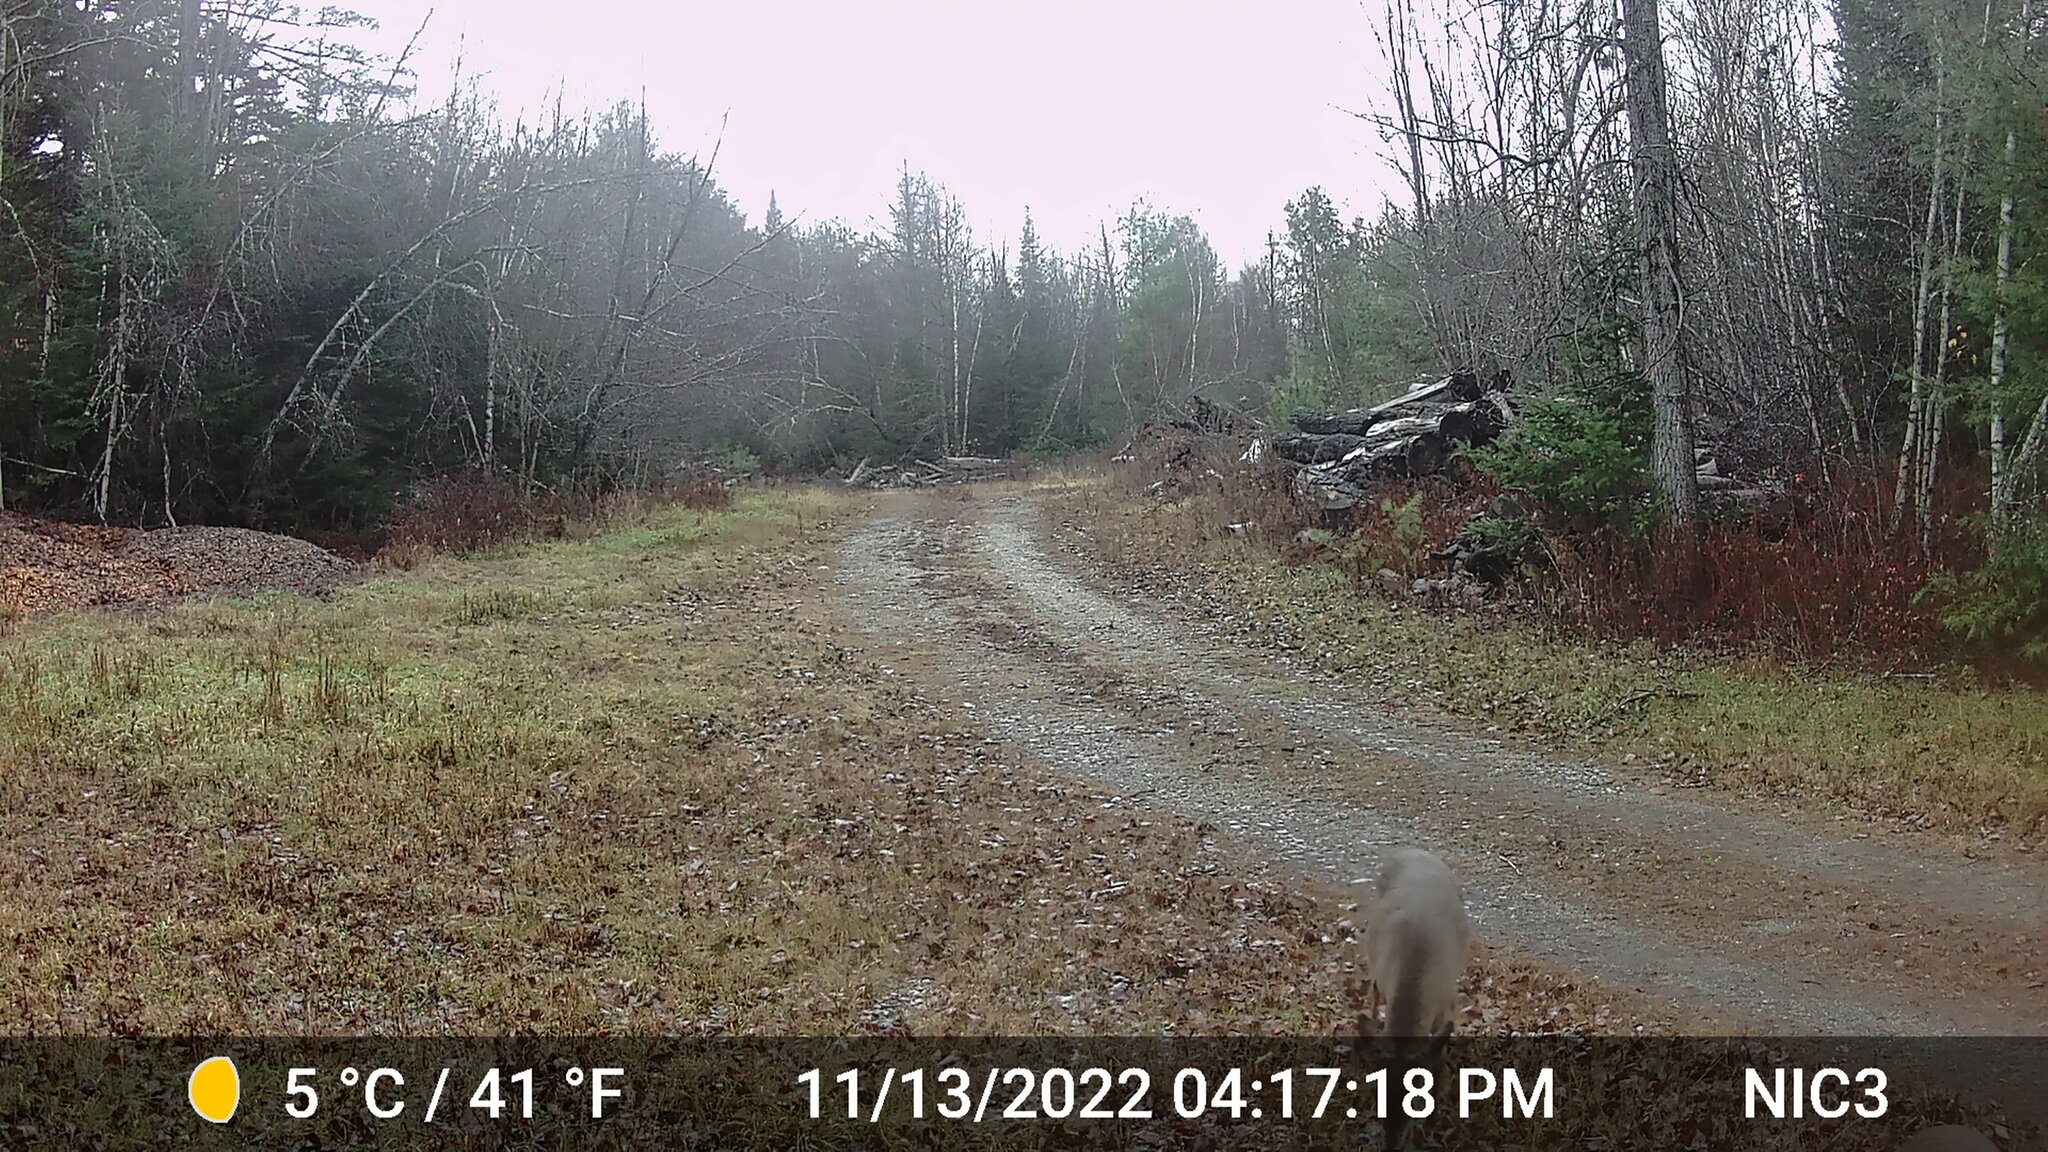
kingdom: Animalia
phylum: Chordata
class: Mammalia
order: Artiodactyla
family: Cervidae
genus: Odocoileus
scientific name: Odocoileus virginianus
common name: White-tailed deer
